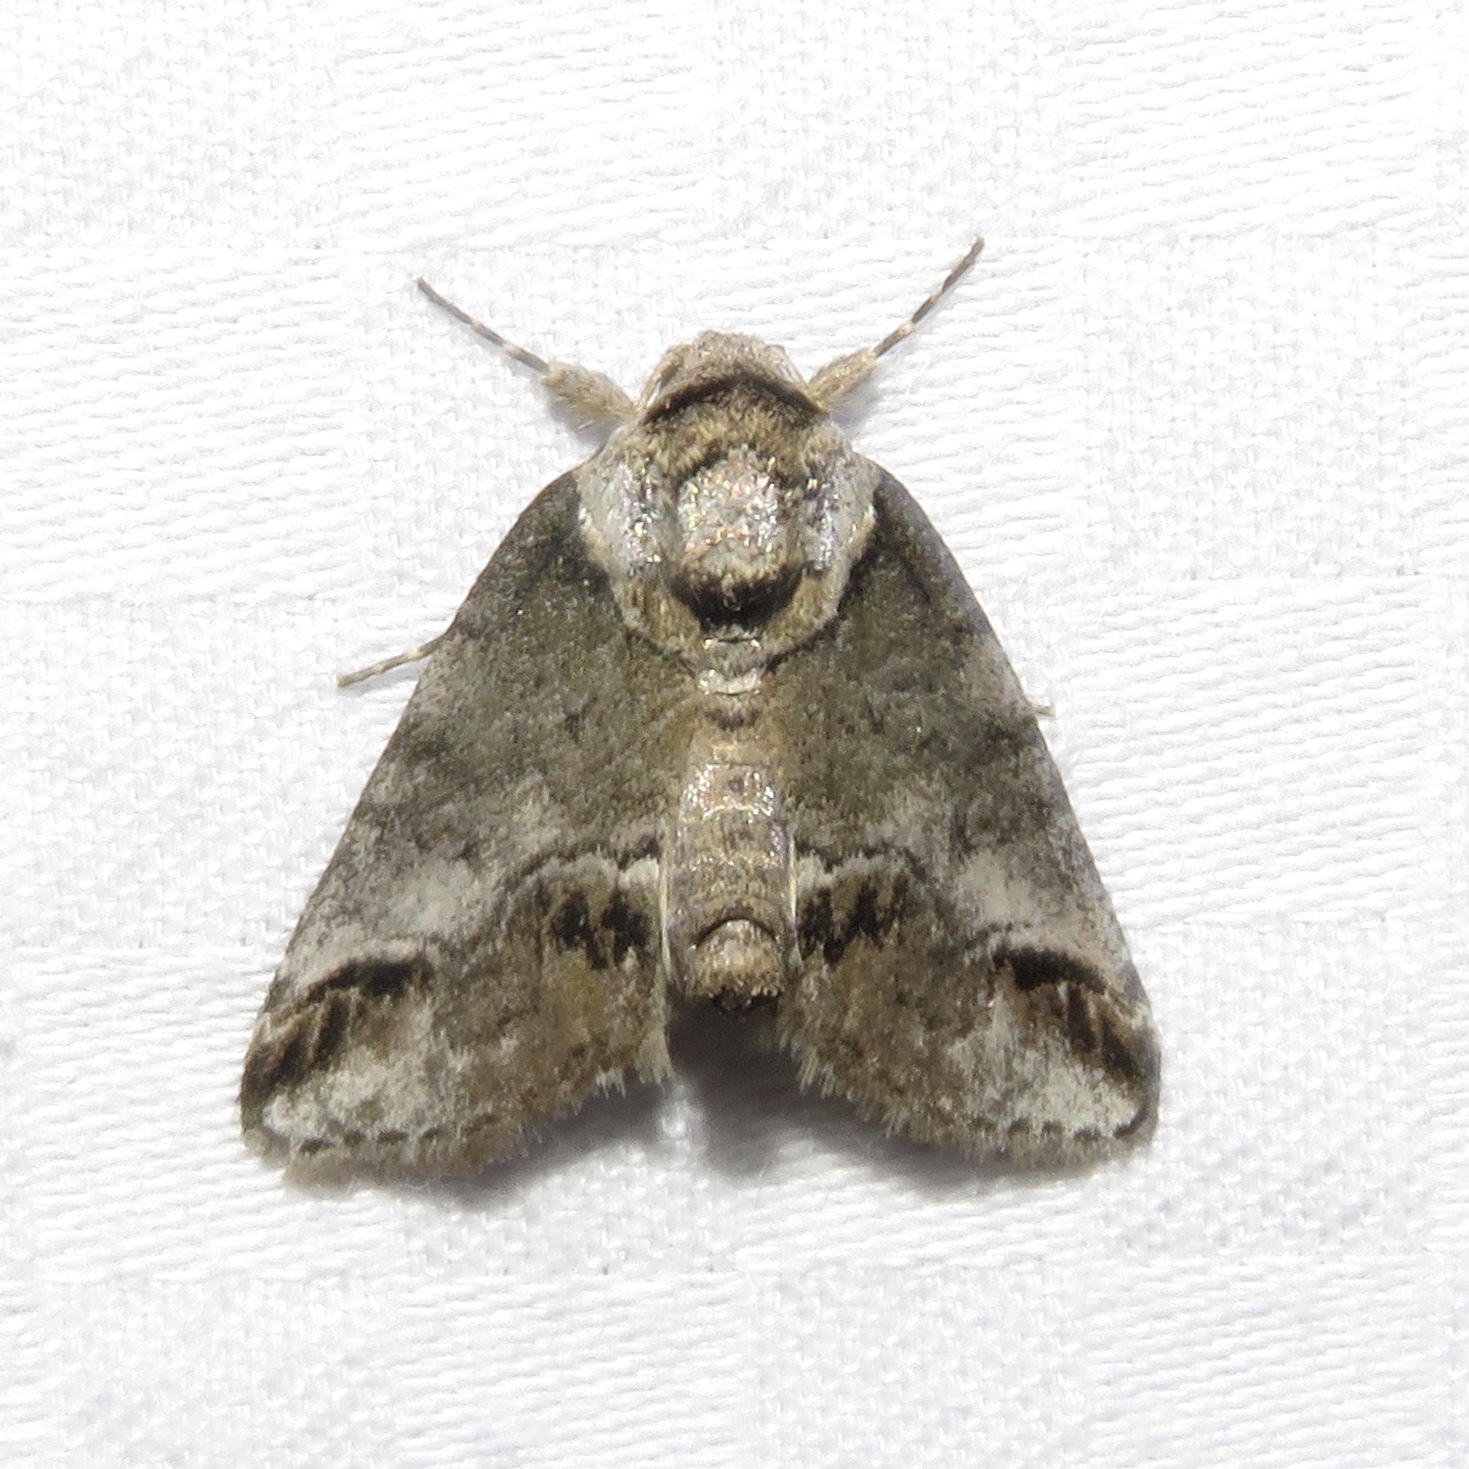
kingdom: Animalia
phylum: Arthropoda
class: Insecta
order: Lepidoptera
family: Nolidae
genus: Baileya
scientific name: Baileya australis
